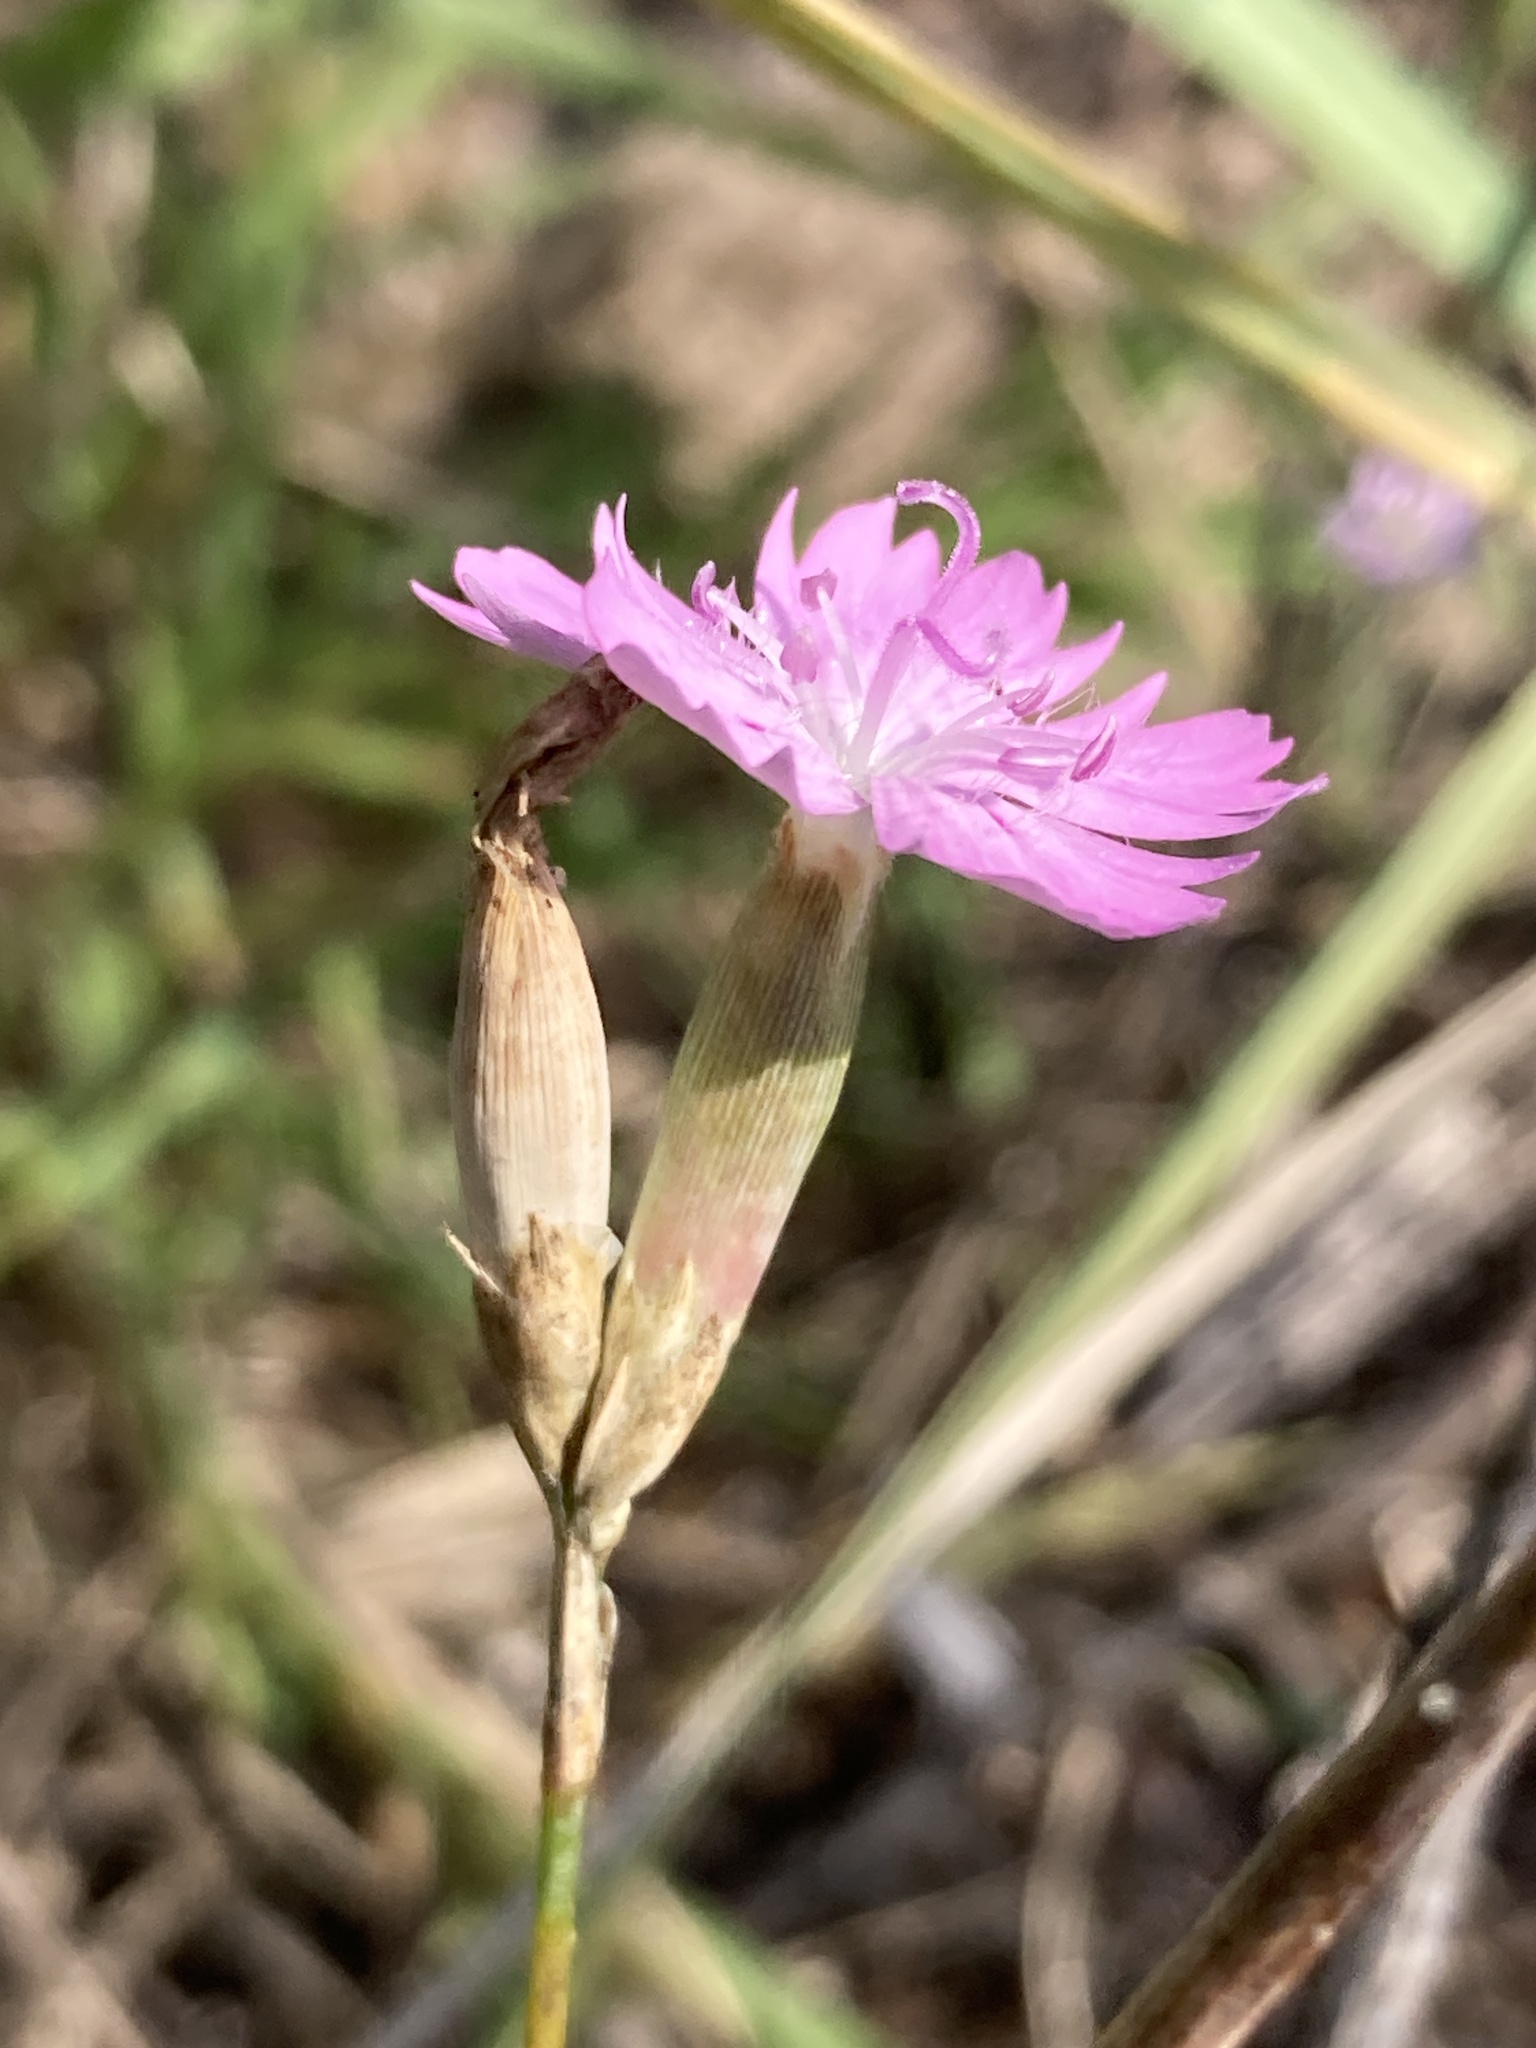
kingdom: Plantae
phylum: Tracheophyta
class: Magnoliopsida
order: Caryophyllales
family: Caryophyllaceae
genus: Dianthus
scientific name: Dianthus polymorphus
